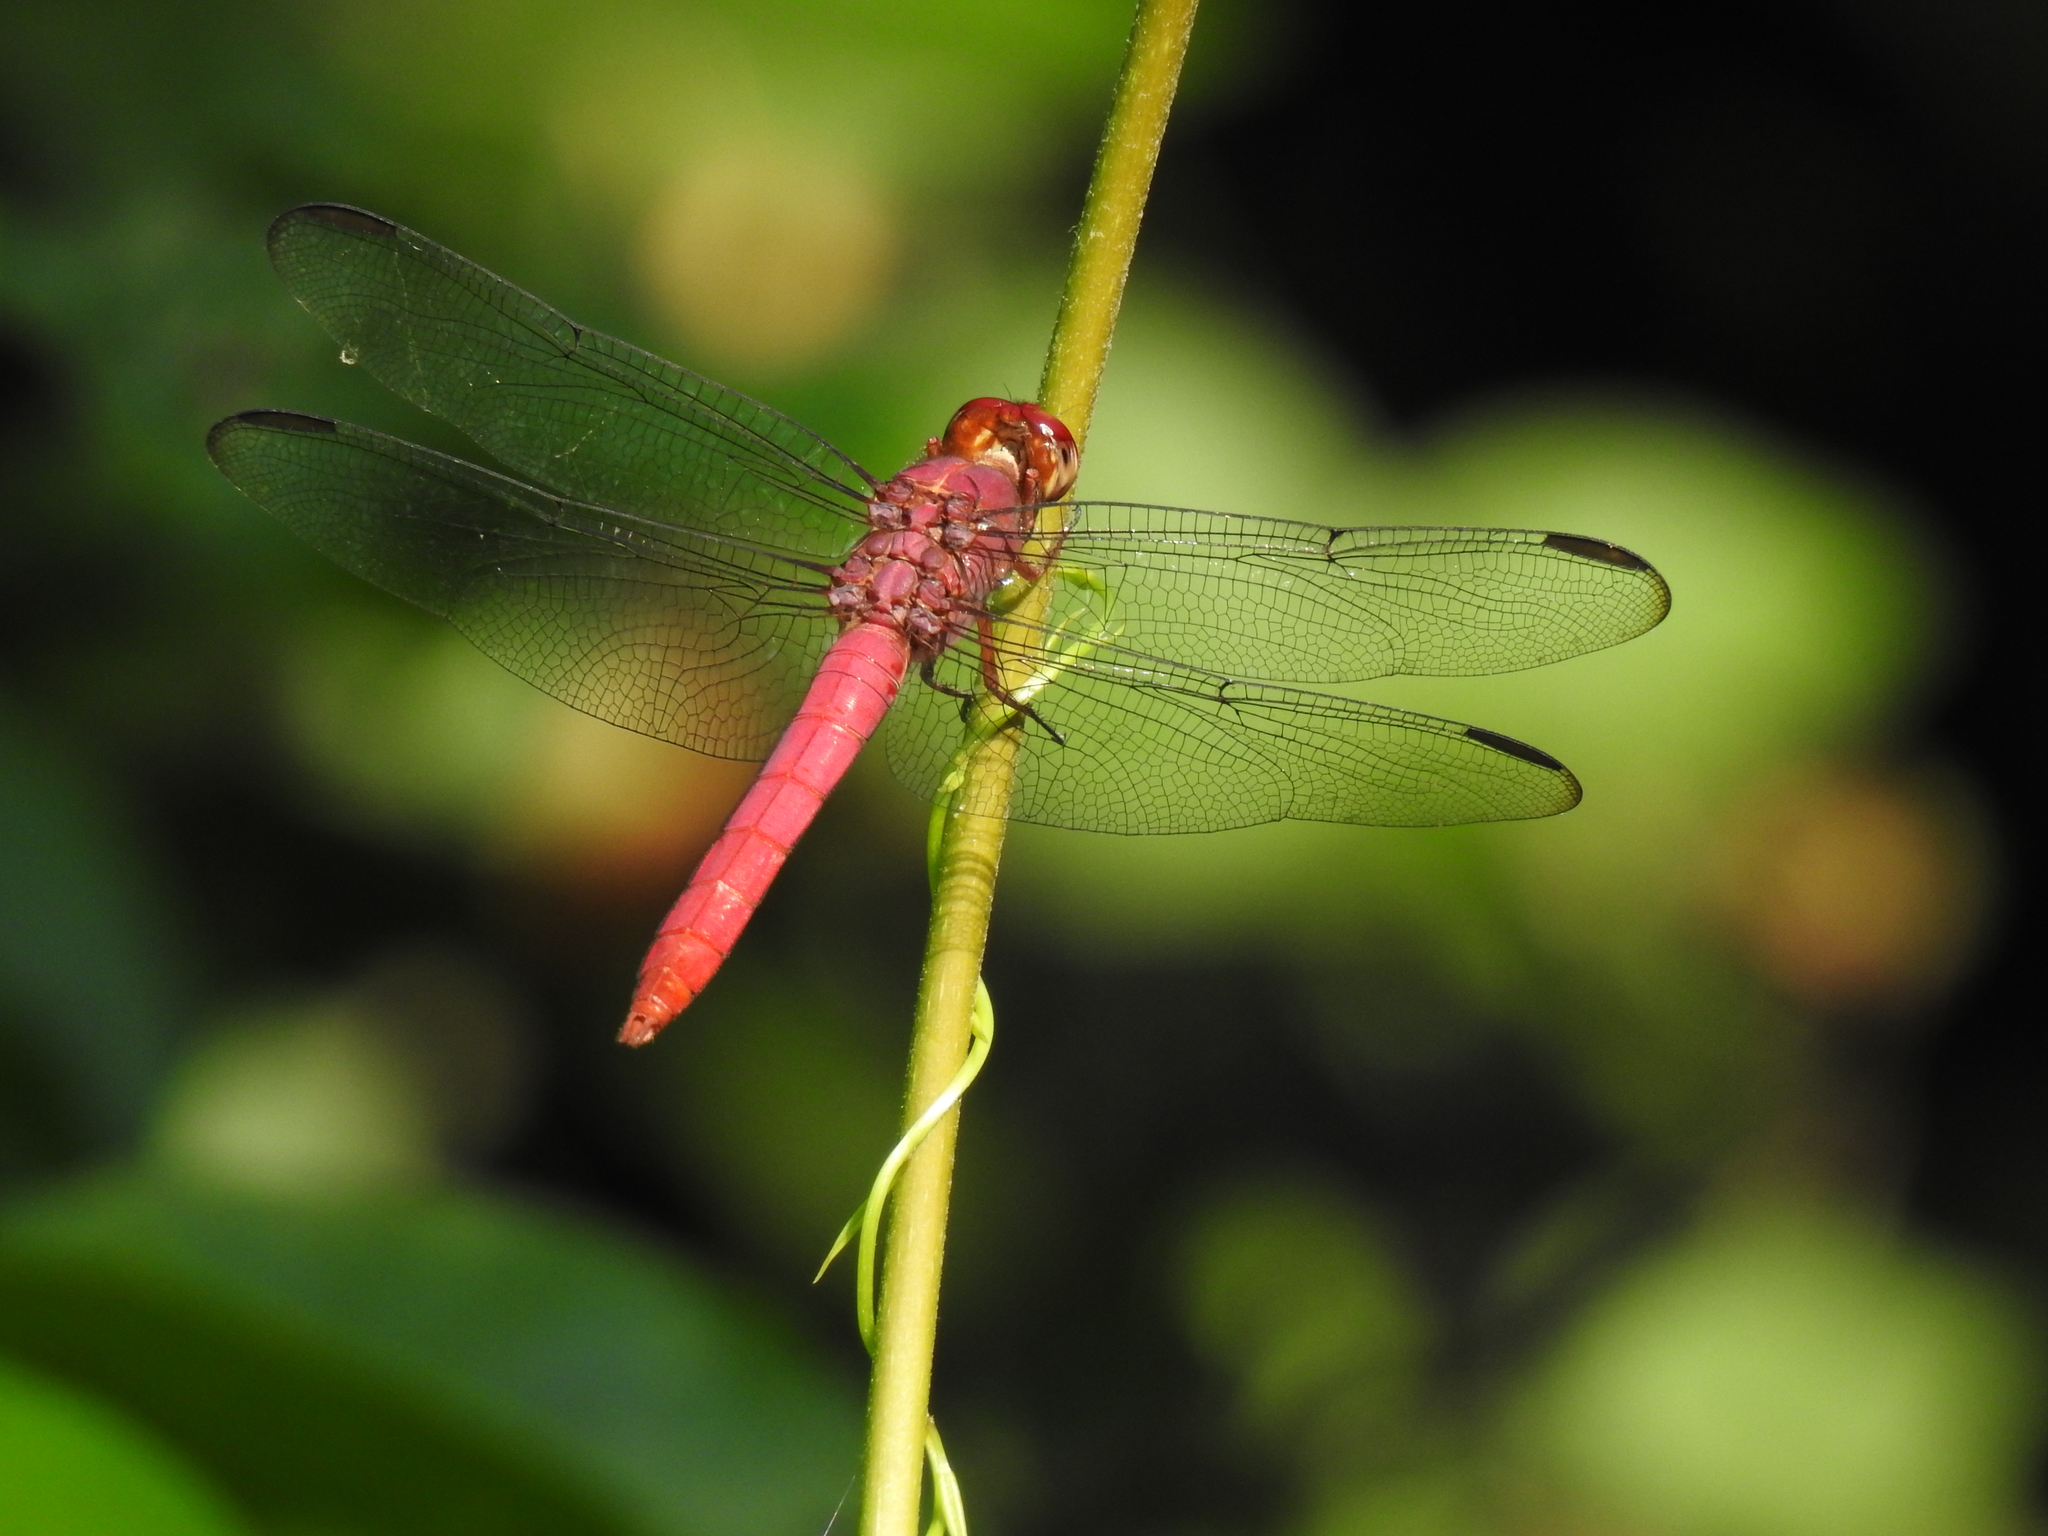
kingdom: Animalia
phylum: Arthropoda
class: Insecta
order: Odonata
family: Libellulidae
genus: Orthemis
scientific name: Orthemis discolor
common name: Carmine skimmer
